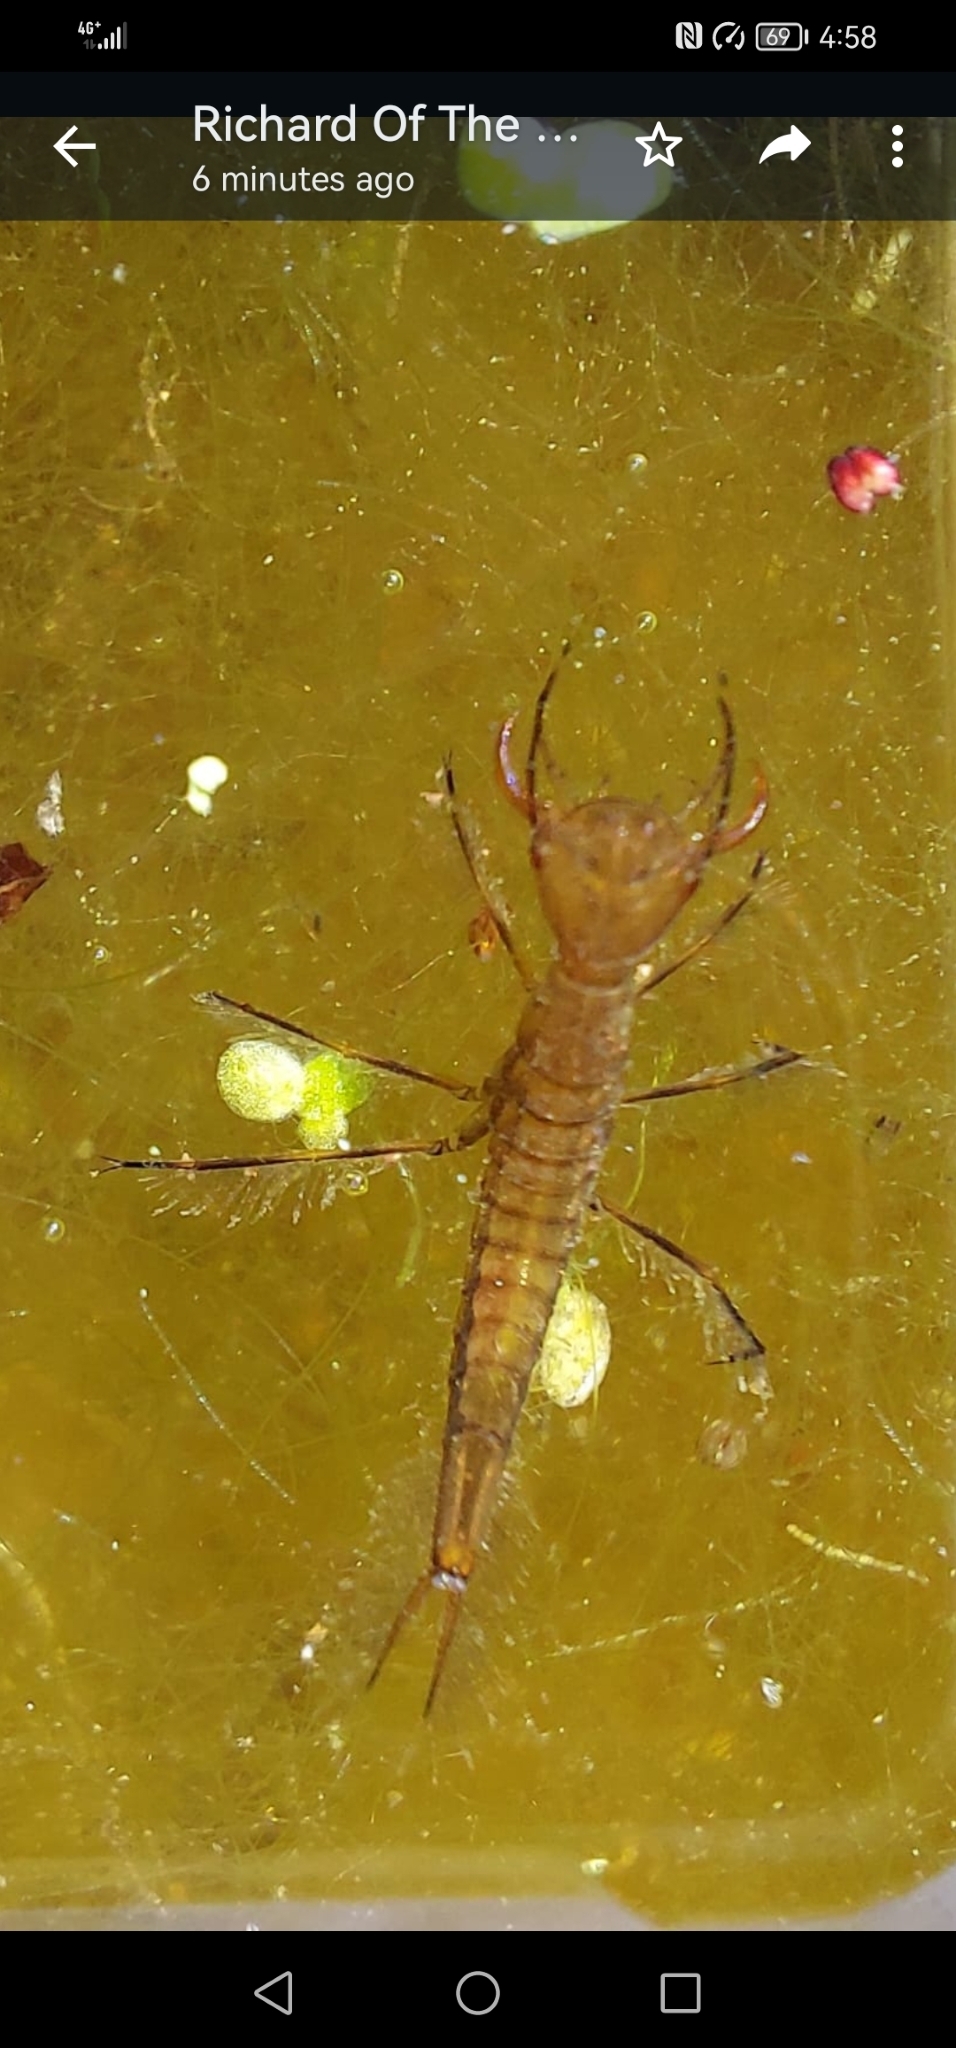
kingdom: Animalia
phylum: Arthropoda
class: Insecta
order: Coleoptera
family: Dytiscidae
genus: Dytiscus
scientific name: Dytiscus
